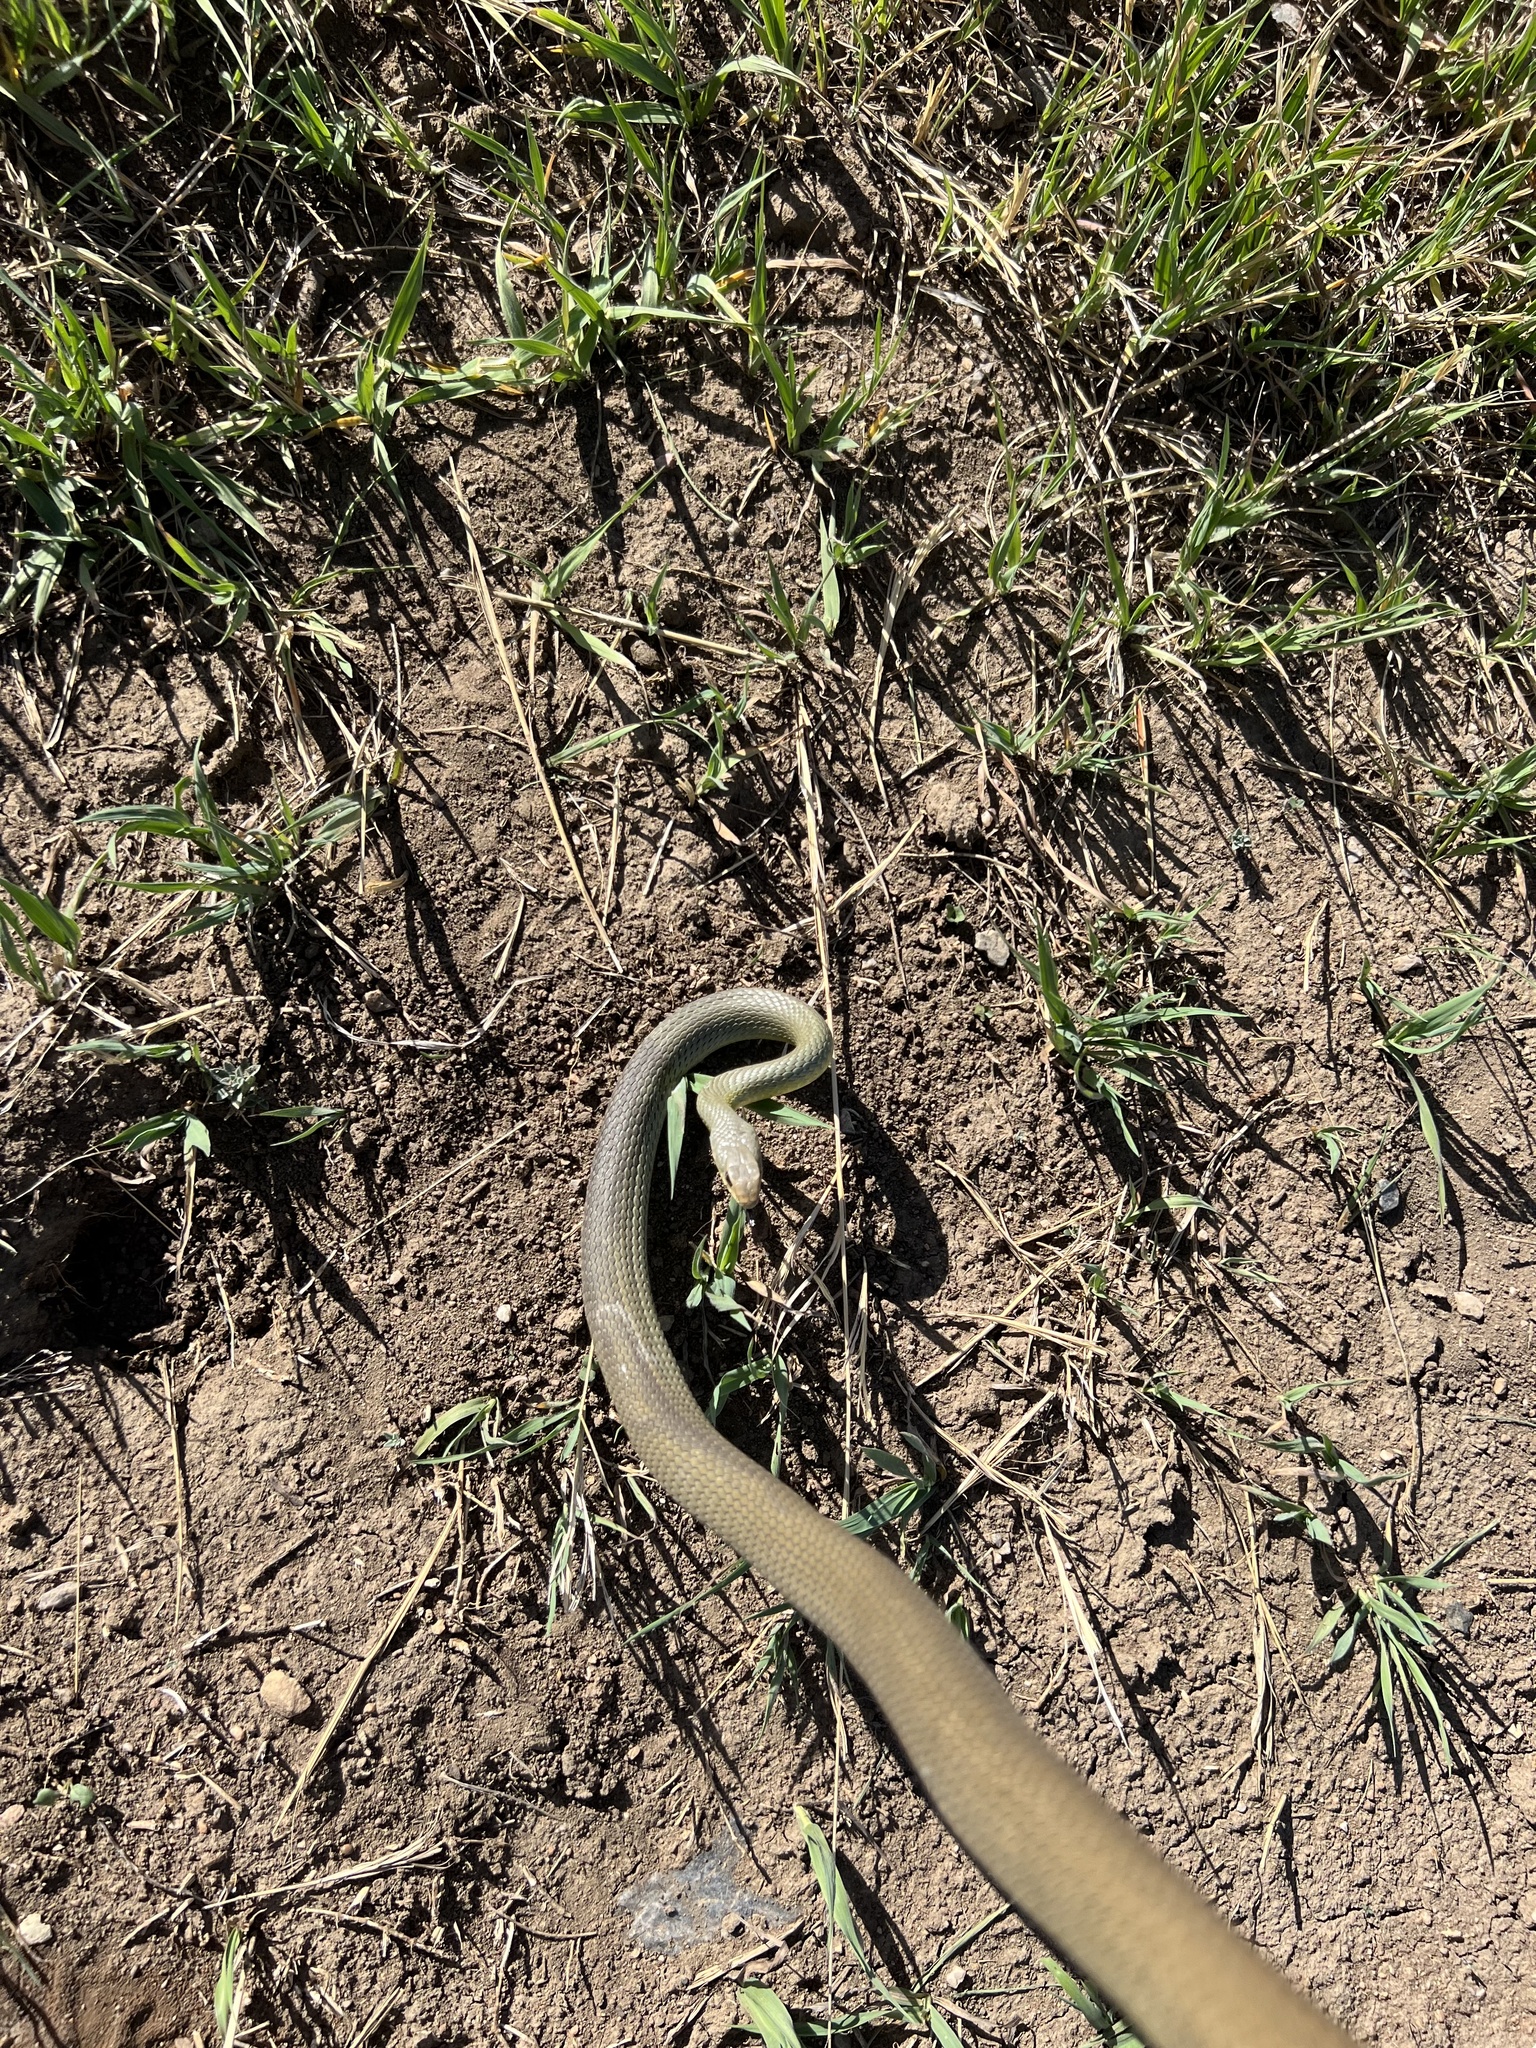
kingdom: Animalia
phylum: Chordata
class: Squamata
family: Colubridae
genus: Coluber
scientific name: Coluber constrictor
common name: Eastern racer
